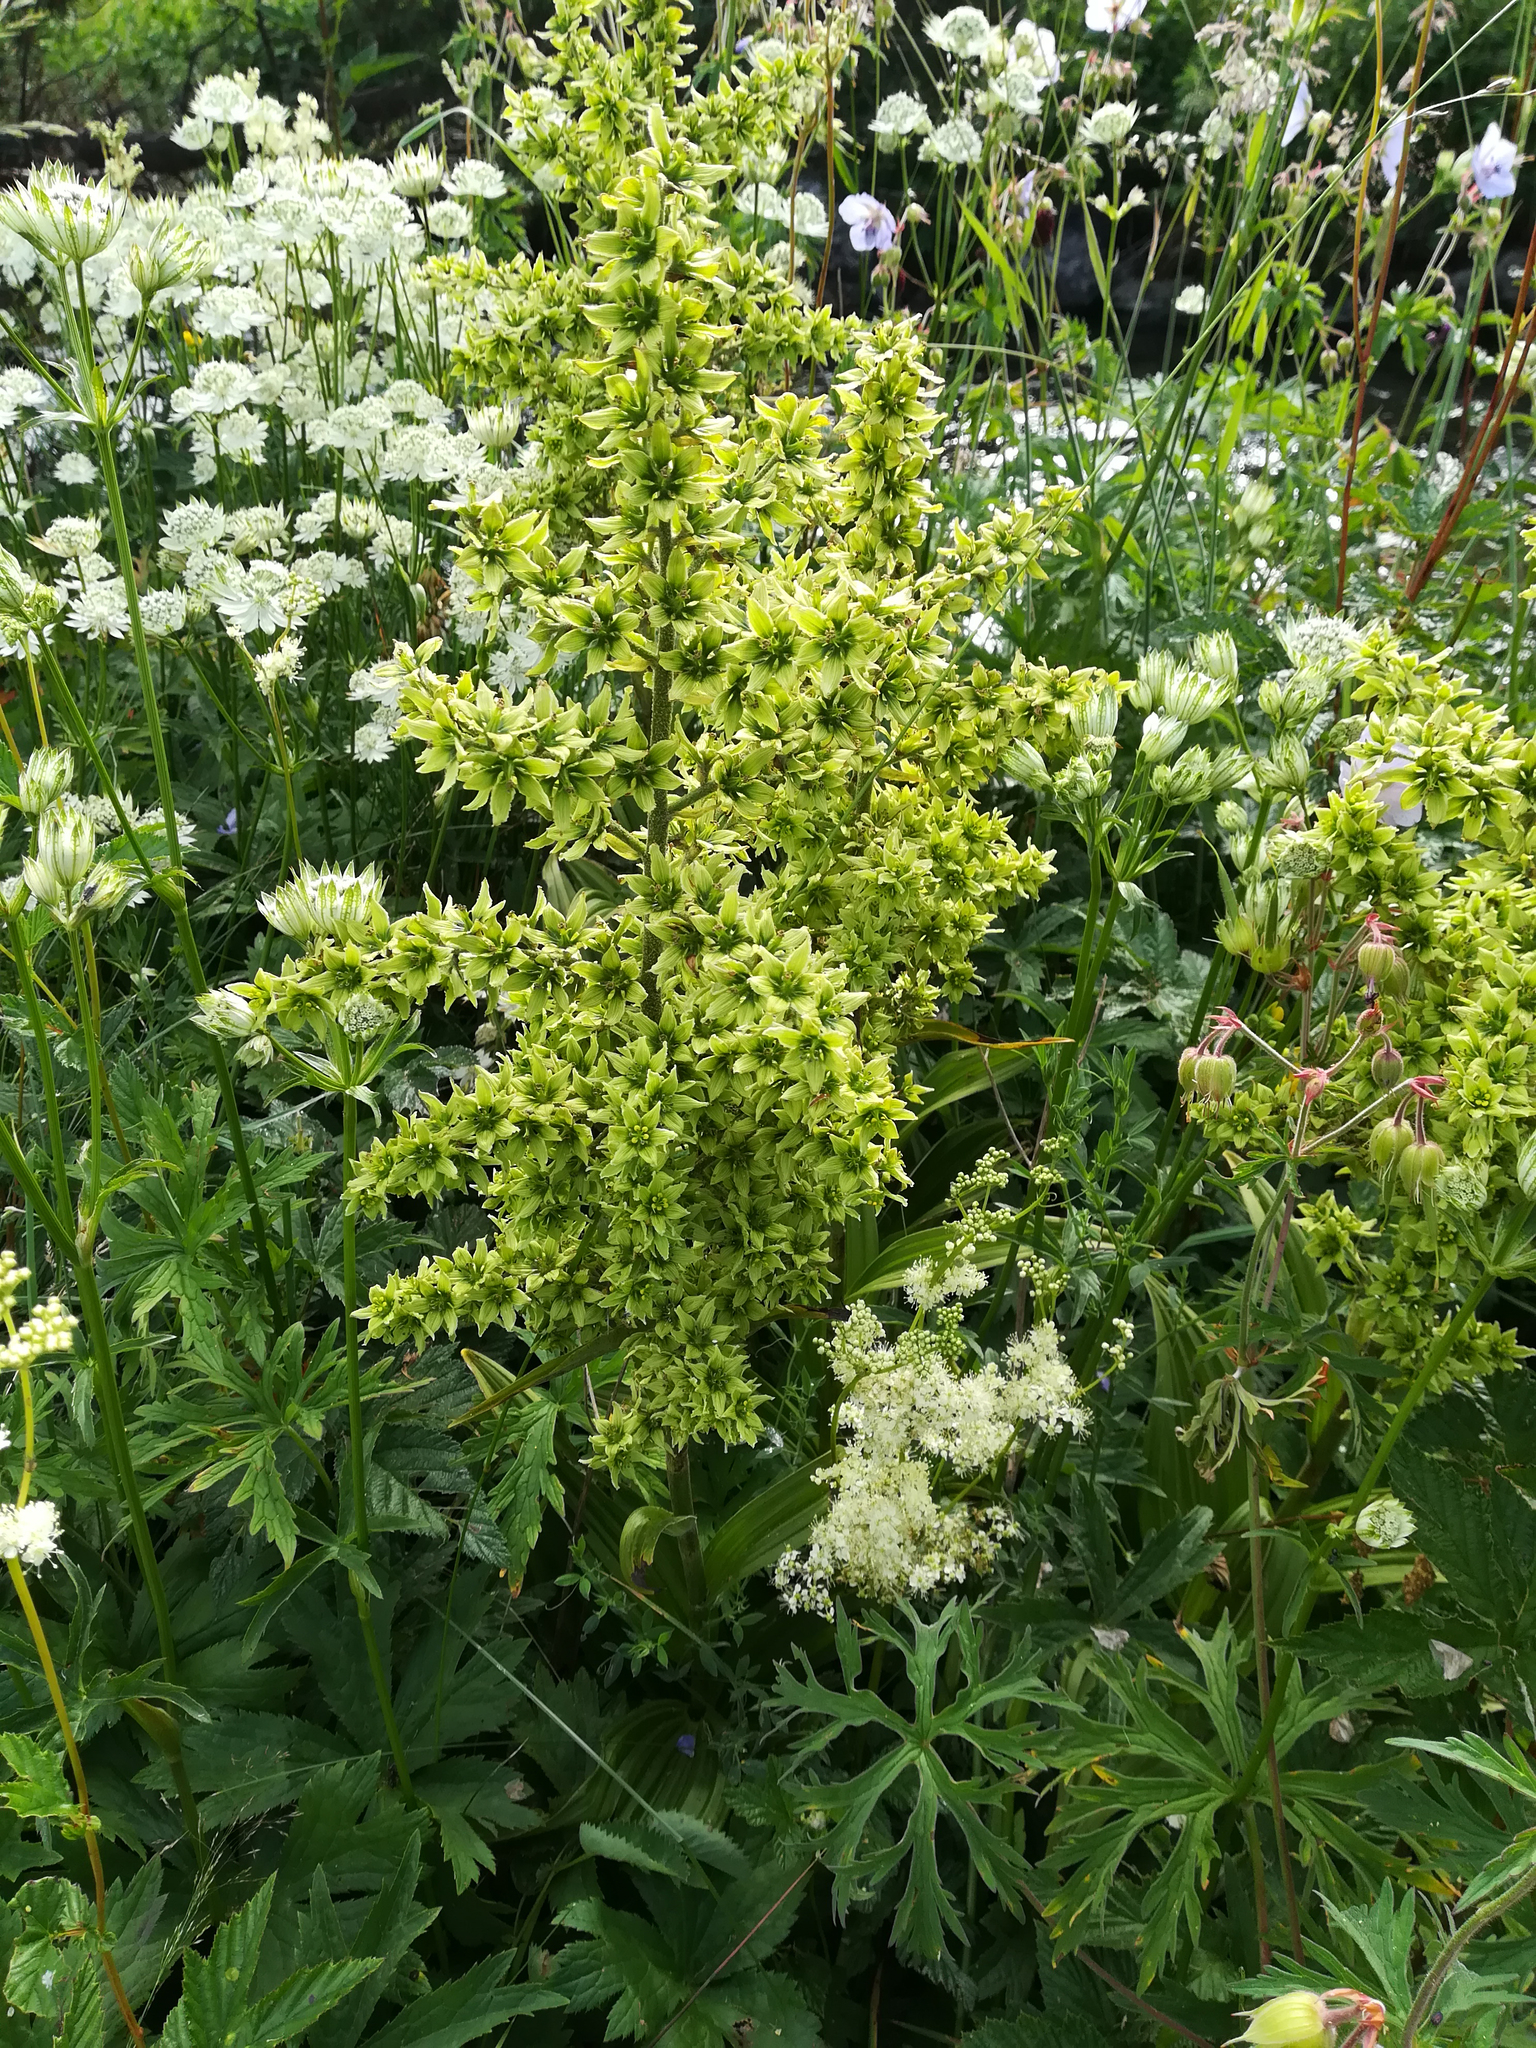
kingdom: Plantae
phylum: Tracheophyta
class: Liliopsida
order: Liliales
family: Melanthiaceae
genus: Veratrum
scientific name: Veratrum album
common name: White veratrum
